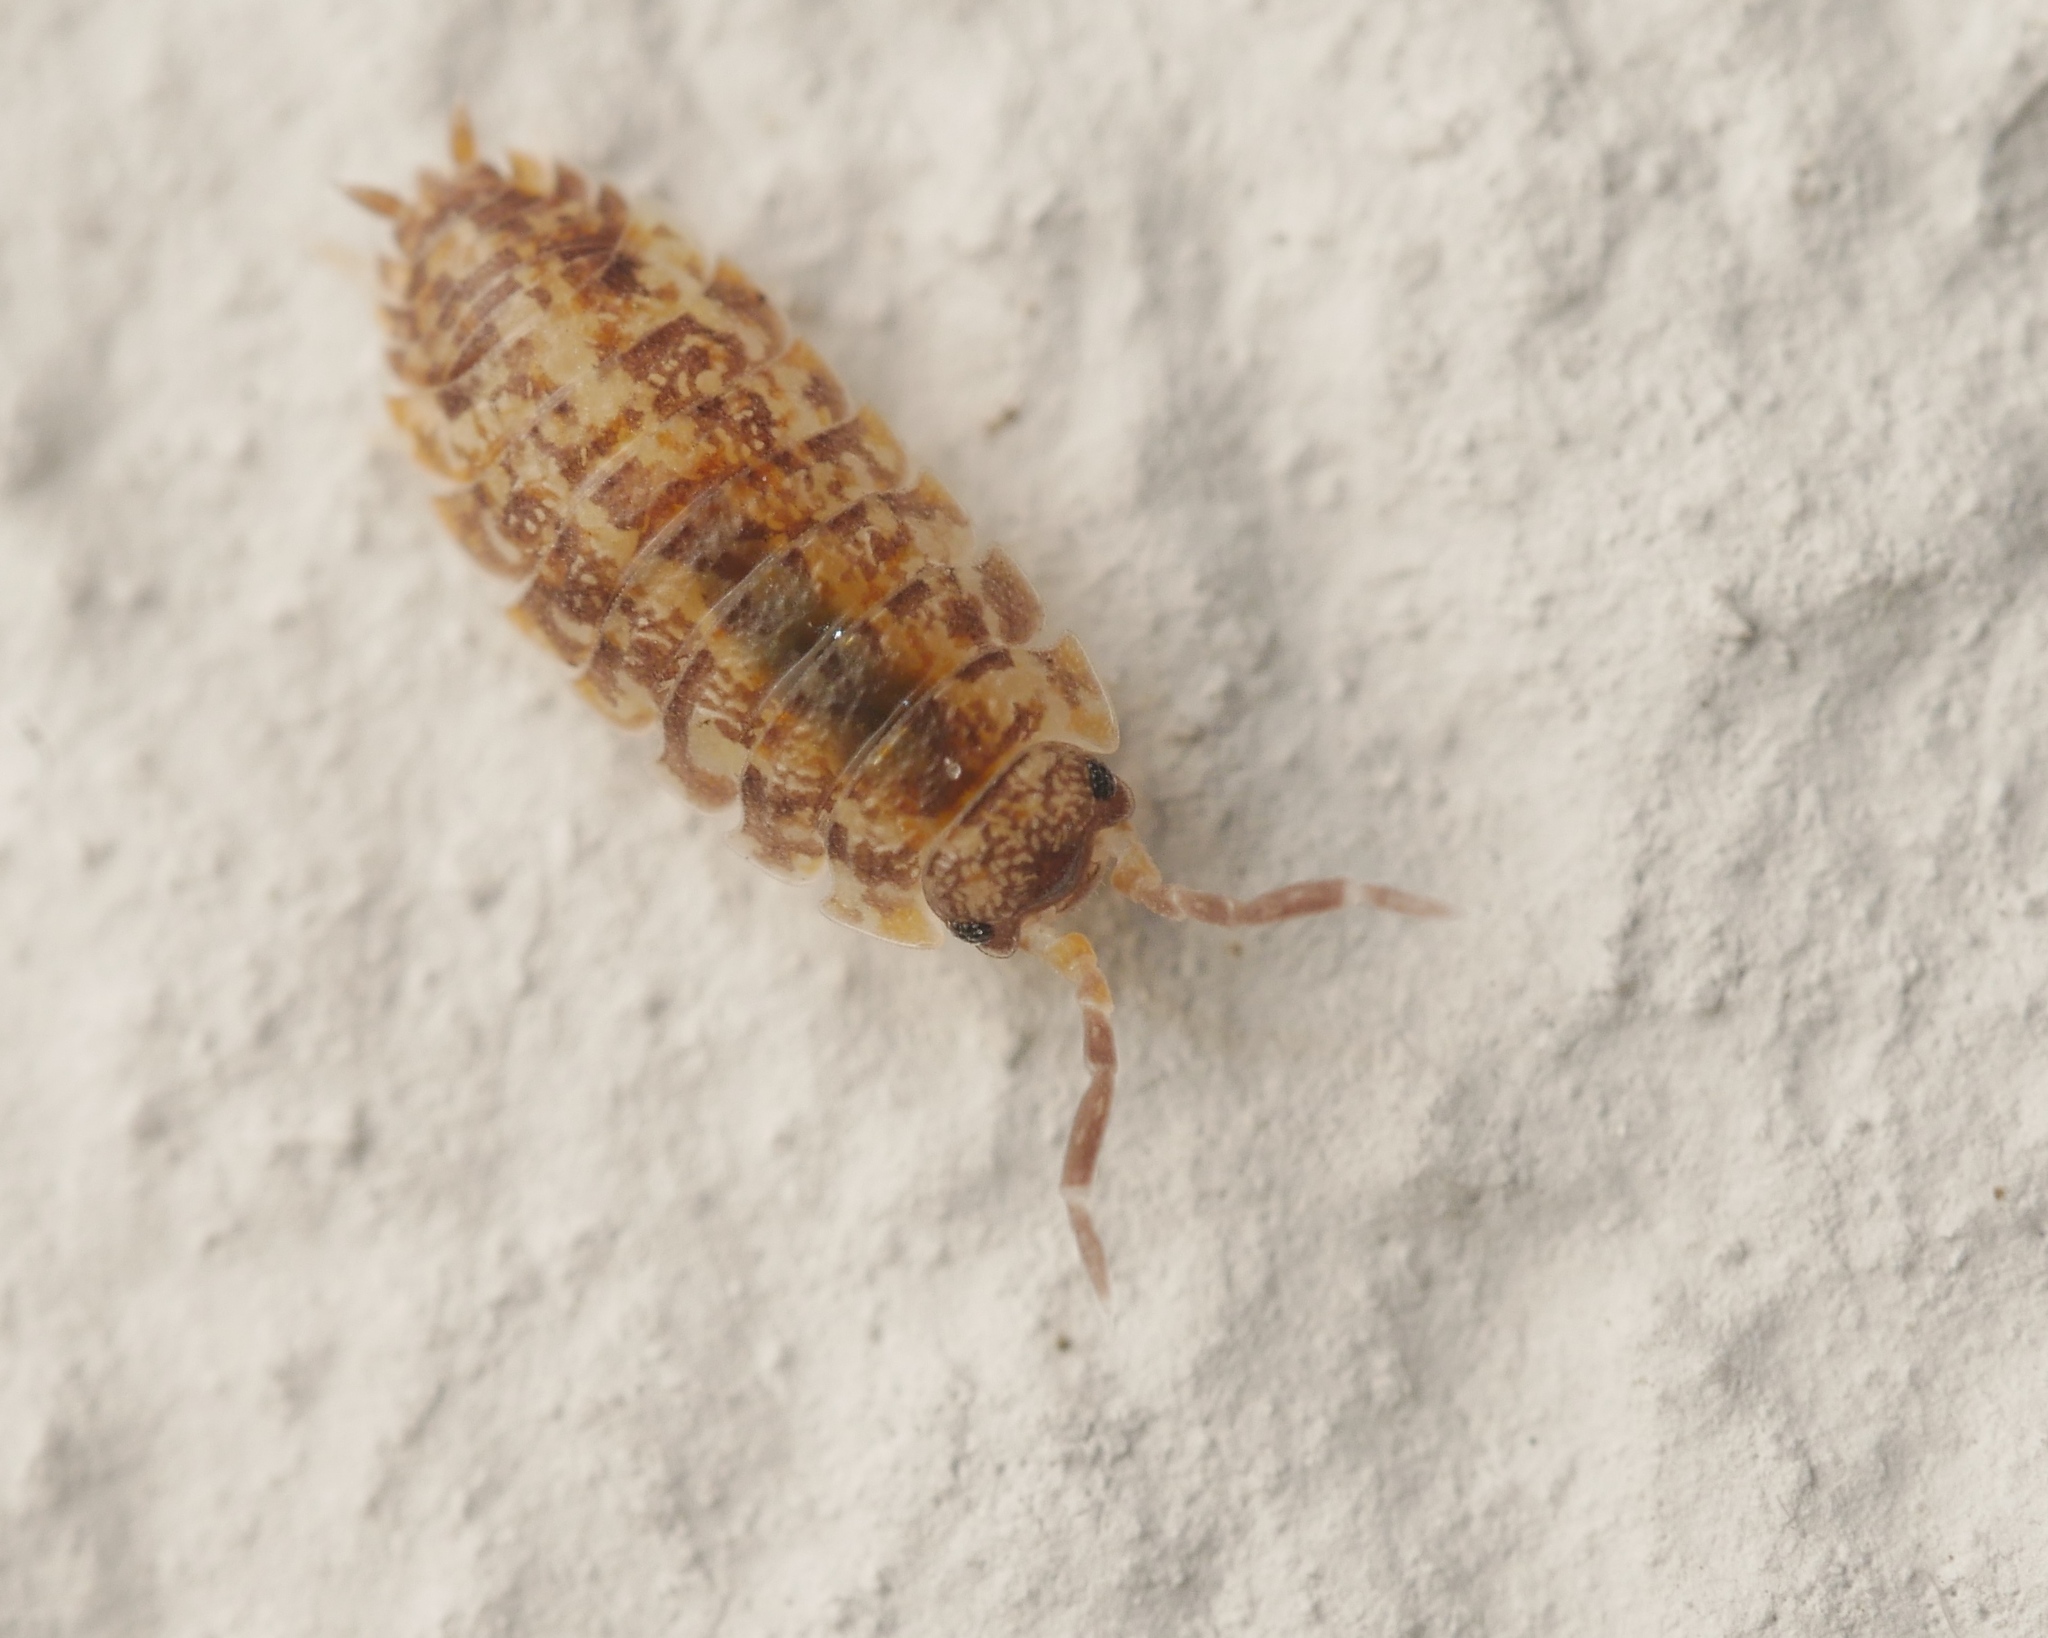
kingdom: Animalia
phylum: Arthropoda
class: Malacostraca
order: Isopoda
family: Porcellionidae
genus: Porcellio
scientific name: Porcellio scaber
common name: Common rough woodlouse
